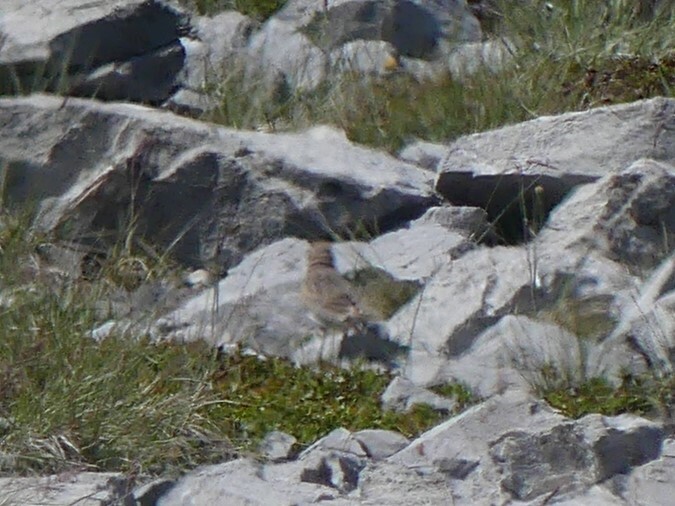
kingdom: Animalia
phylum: Chordata
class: Aves
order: Passeriformes
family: Alaudidae
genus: Eremophila
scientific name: Eremophila alpestris
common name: Horned lark
